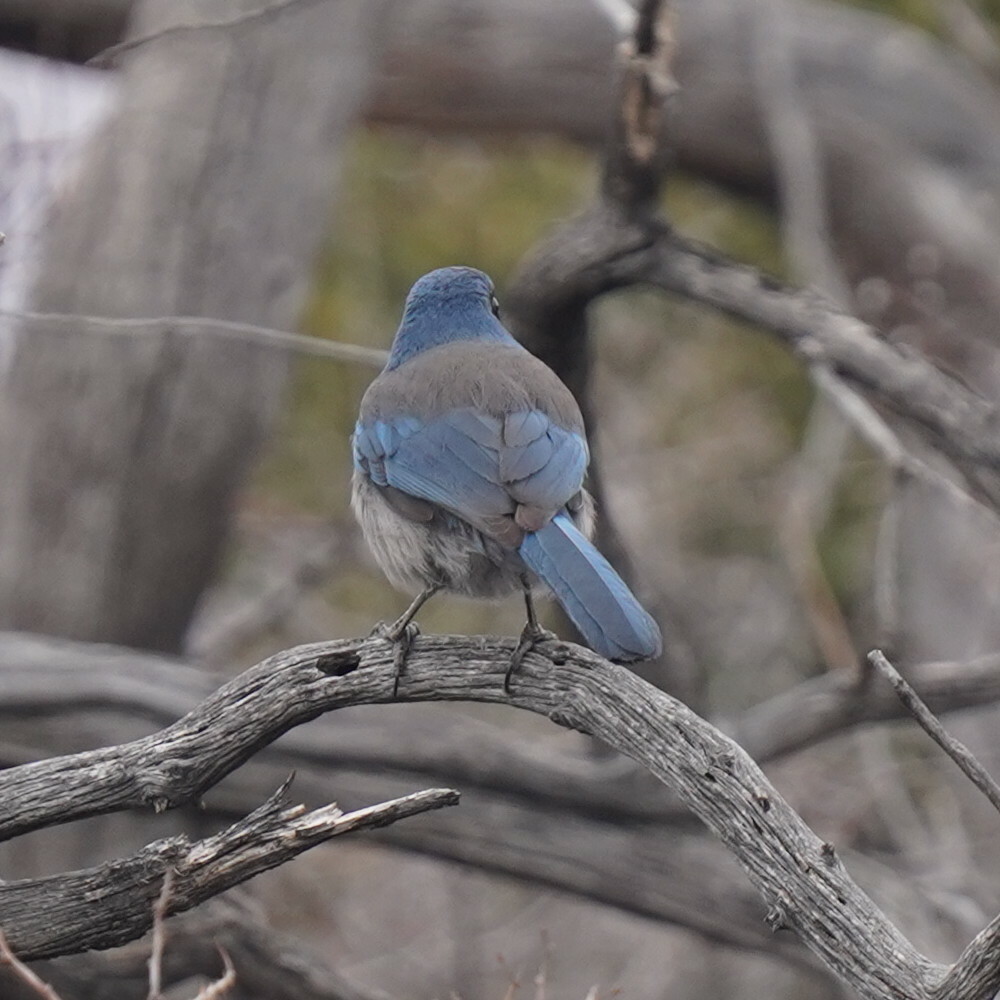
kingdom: Animalia
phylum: Chordata
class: Aves
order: Passeriformes
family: Corvidae
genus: Aphelocoma
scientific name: Aphelocoma woodhouseii
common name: Woodhouse's scrub-jay
